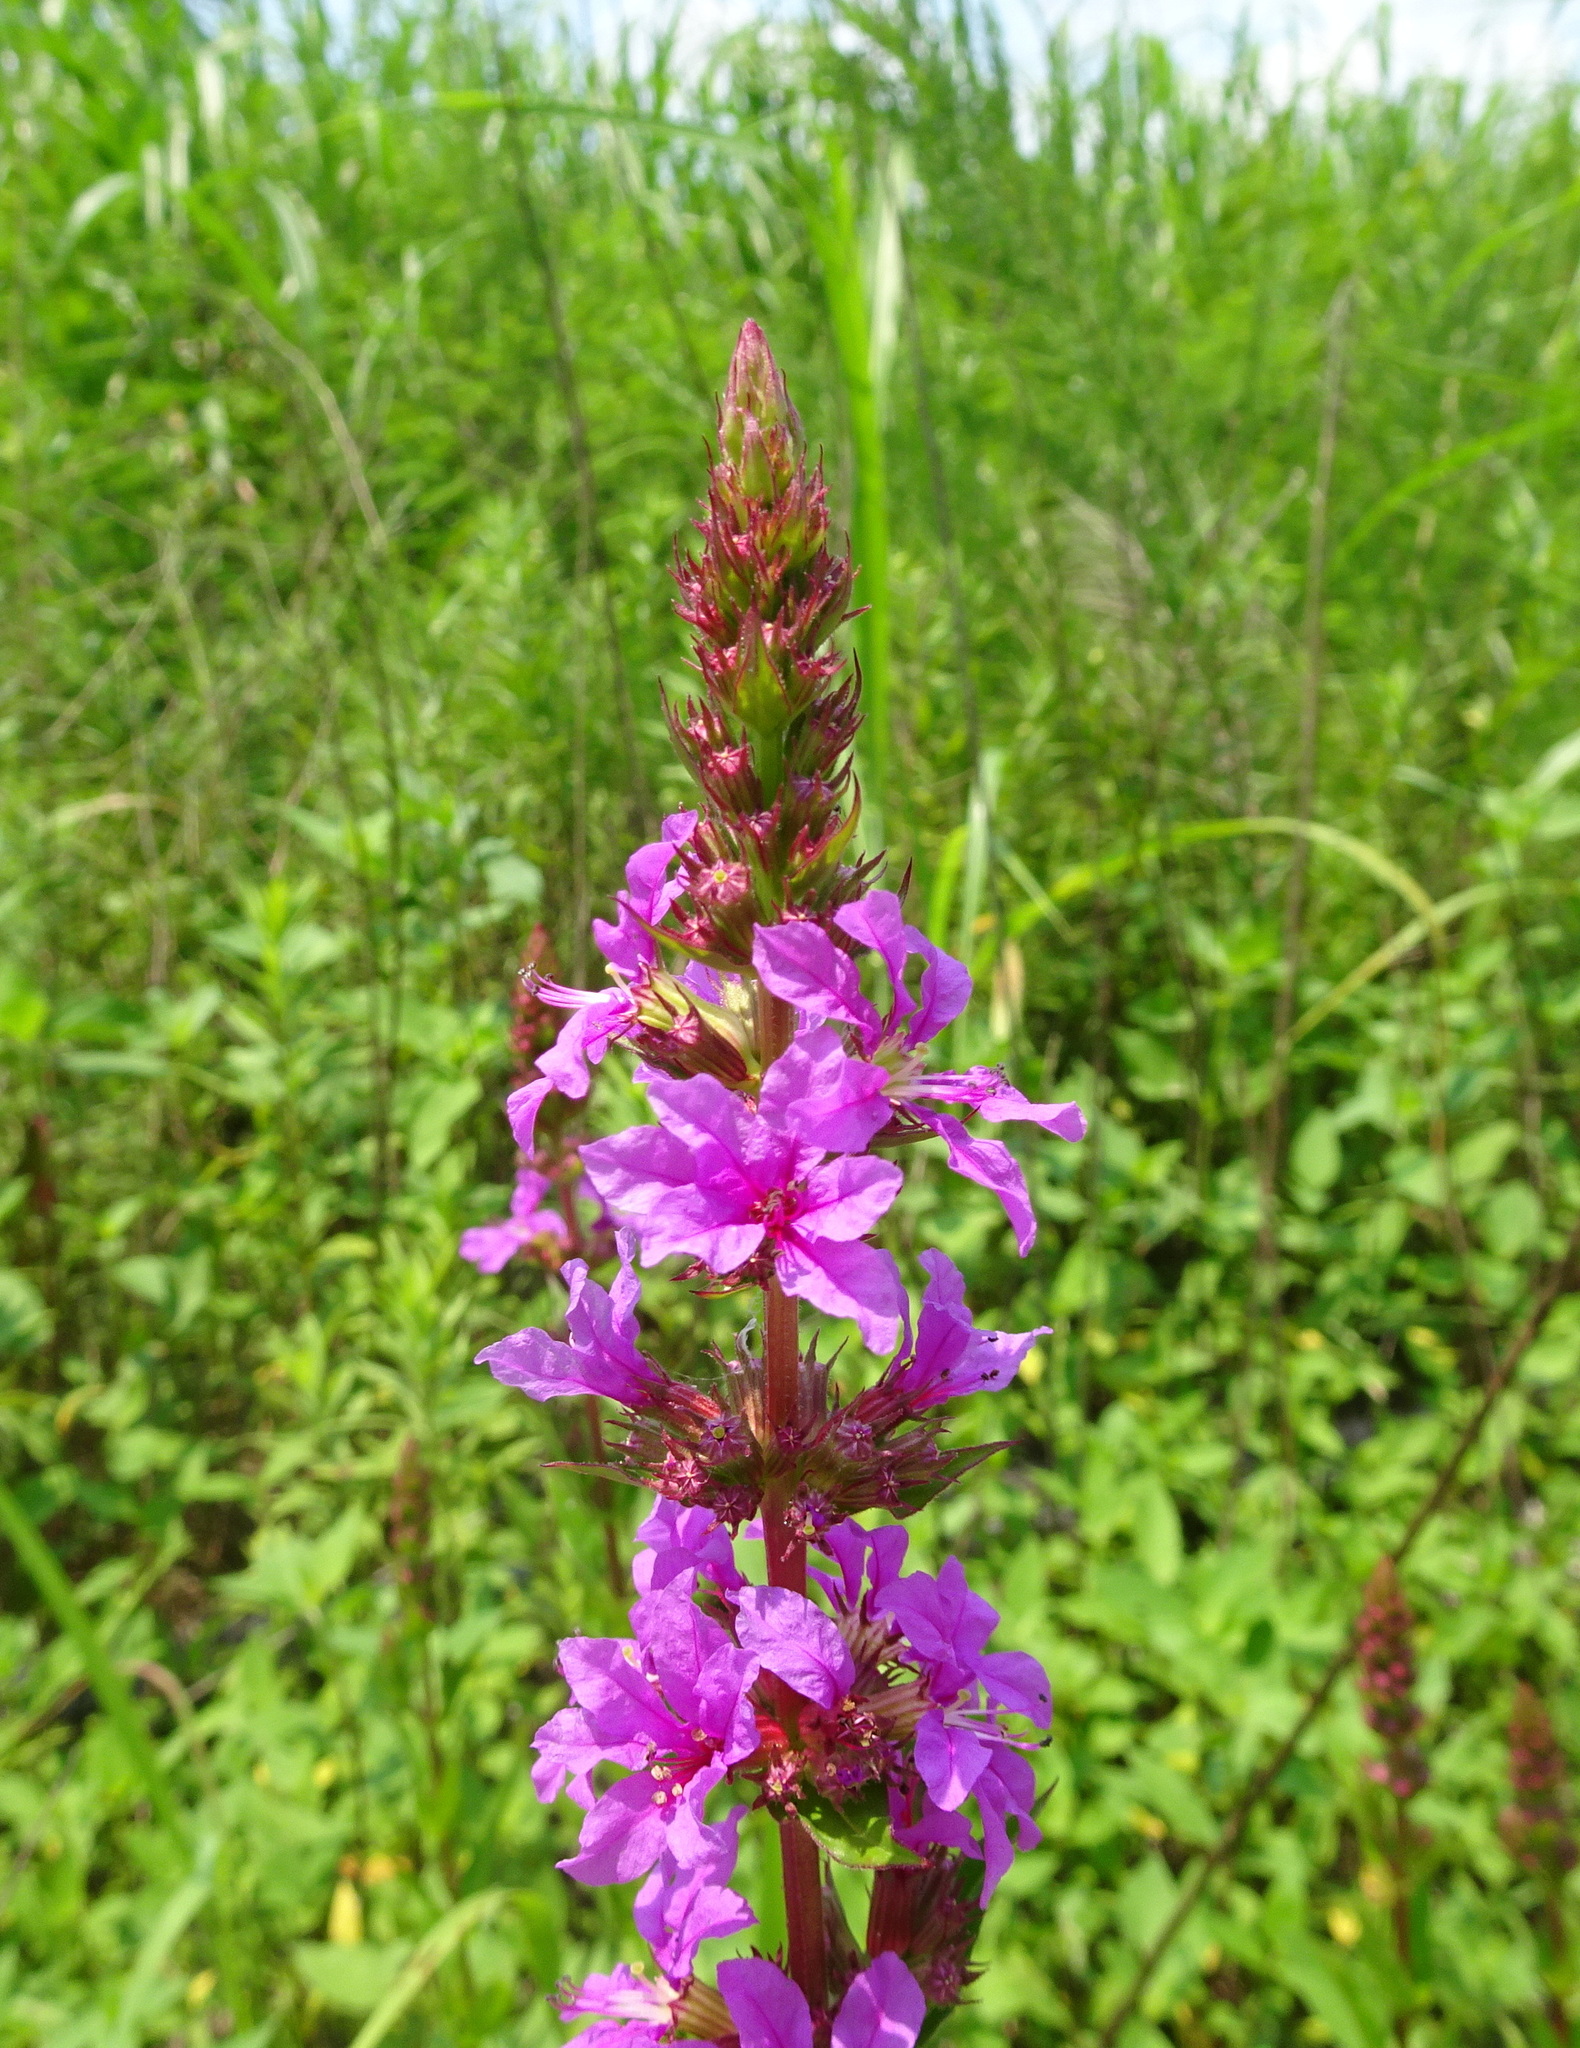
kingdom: Plantae
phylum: Tracheophyta
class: Magnoliopsida
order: Myrtales
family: Lythraceae
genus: Lythrum
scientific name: Lythrum salicaria
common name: Purple loosestrife
